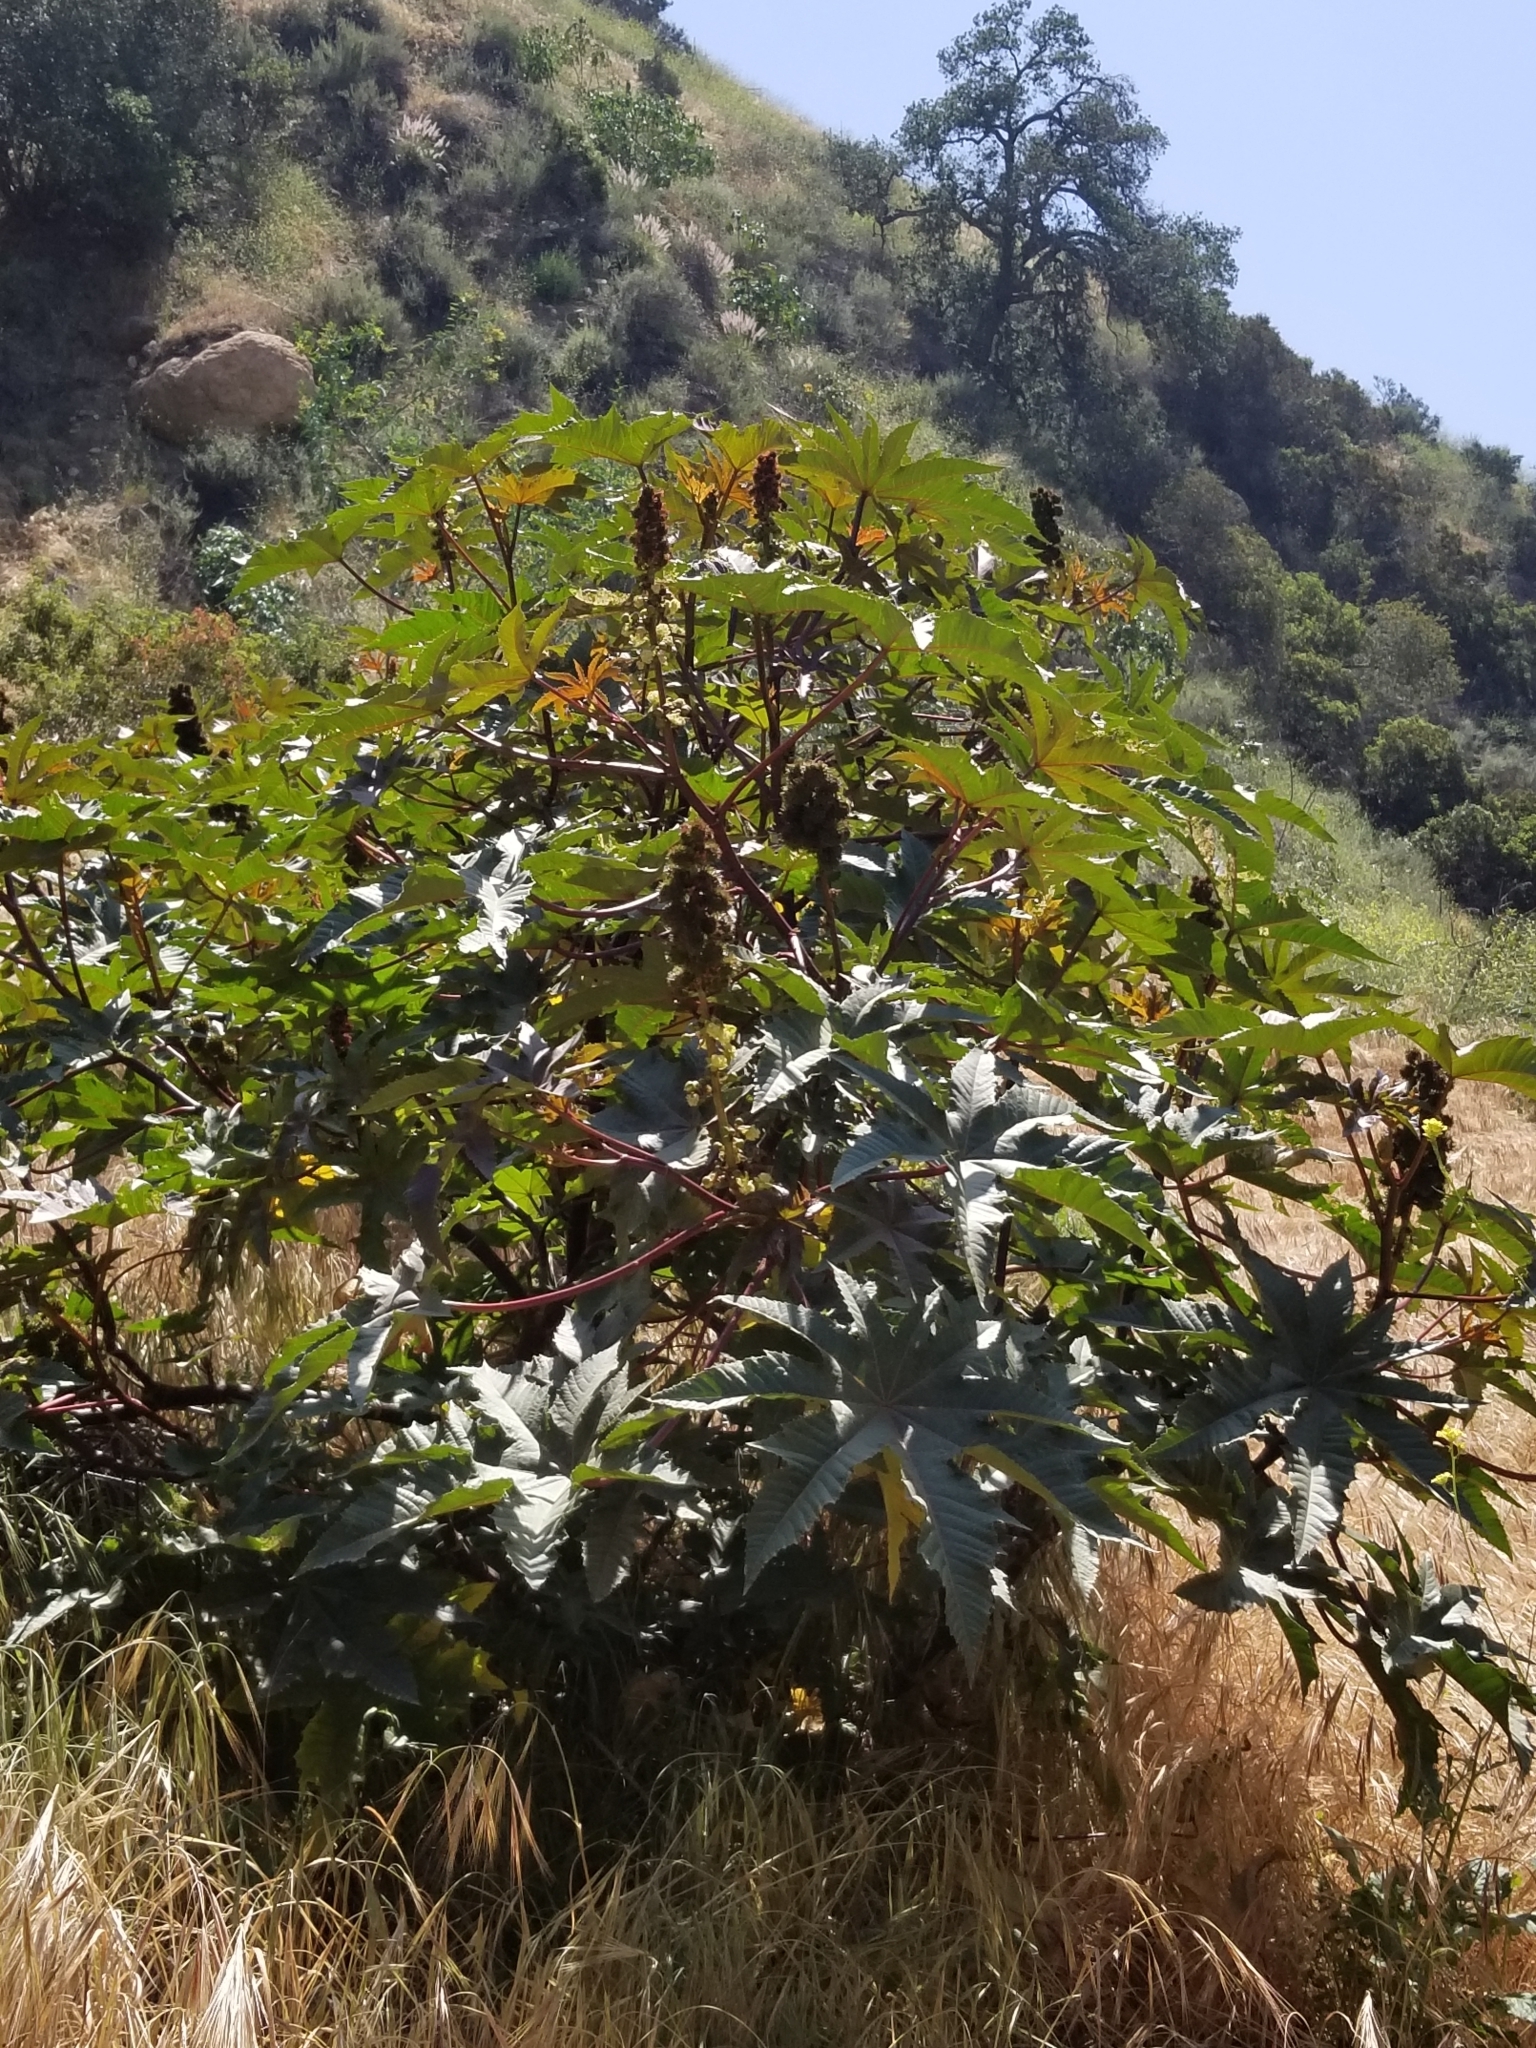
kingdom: Plantae
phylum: Tracheophyta
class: Magnoliopsida
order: Malpighiales
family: Euphorbiaceae
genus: Ricinus
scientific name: Ricinus communis
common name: Castor-oil-plant
